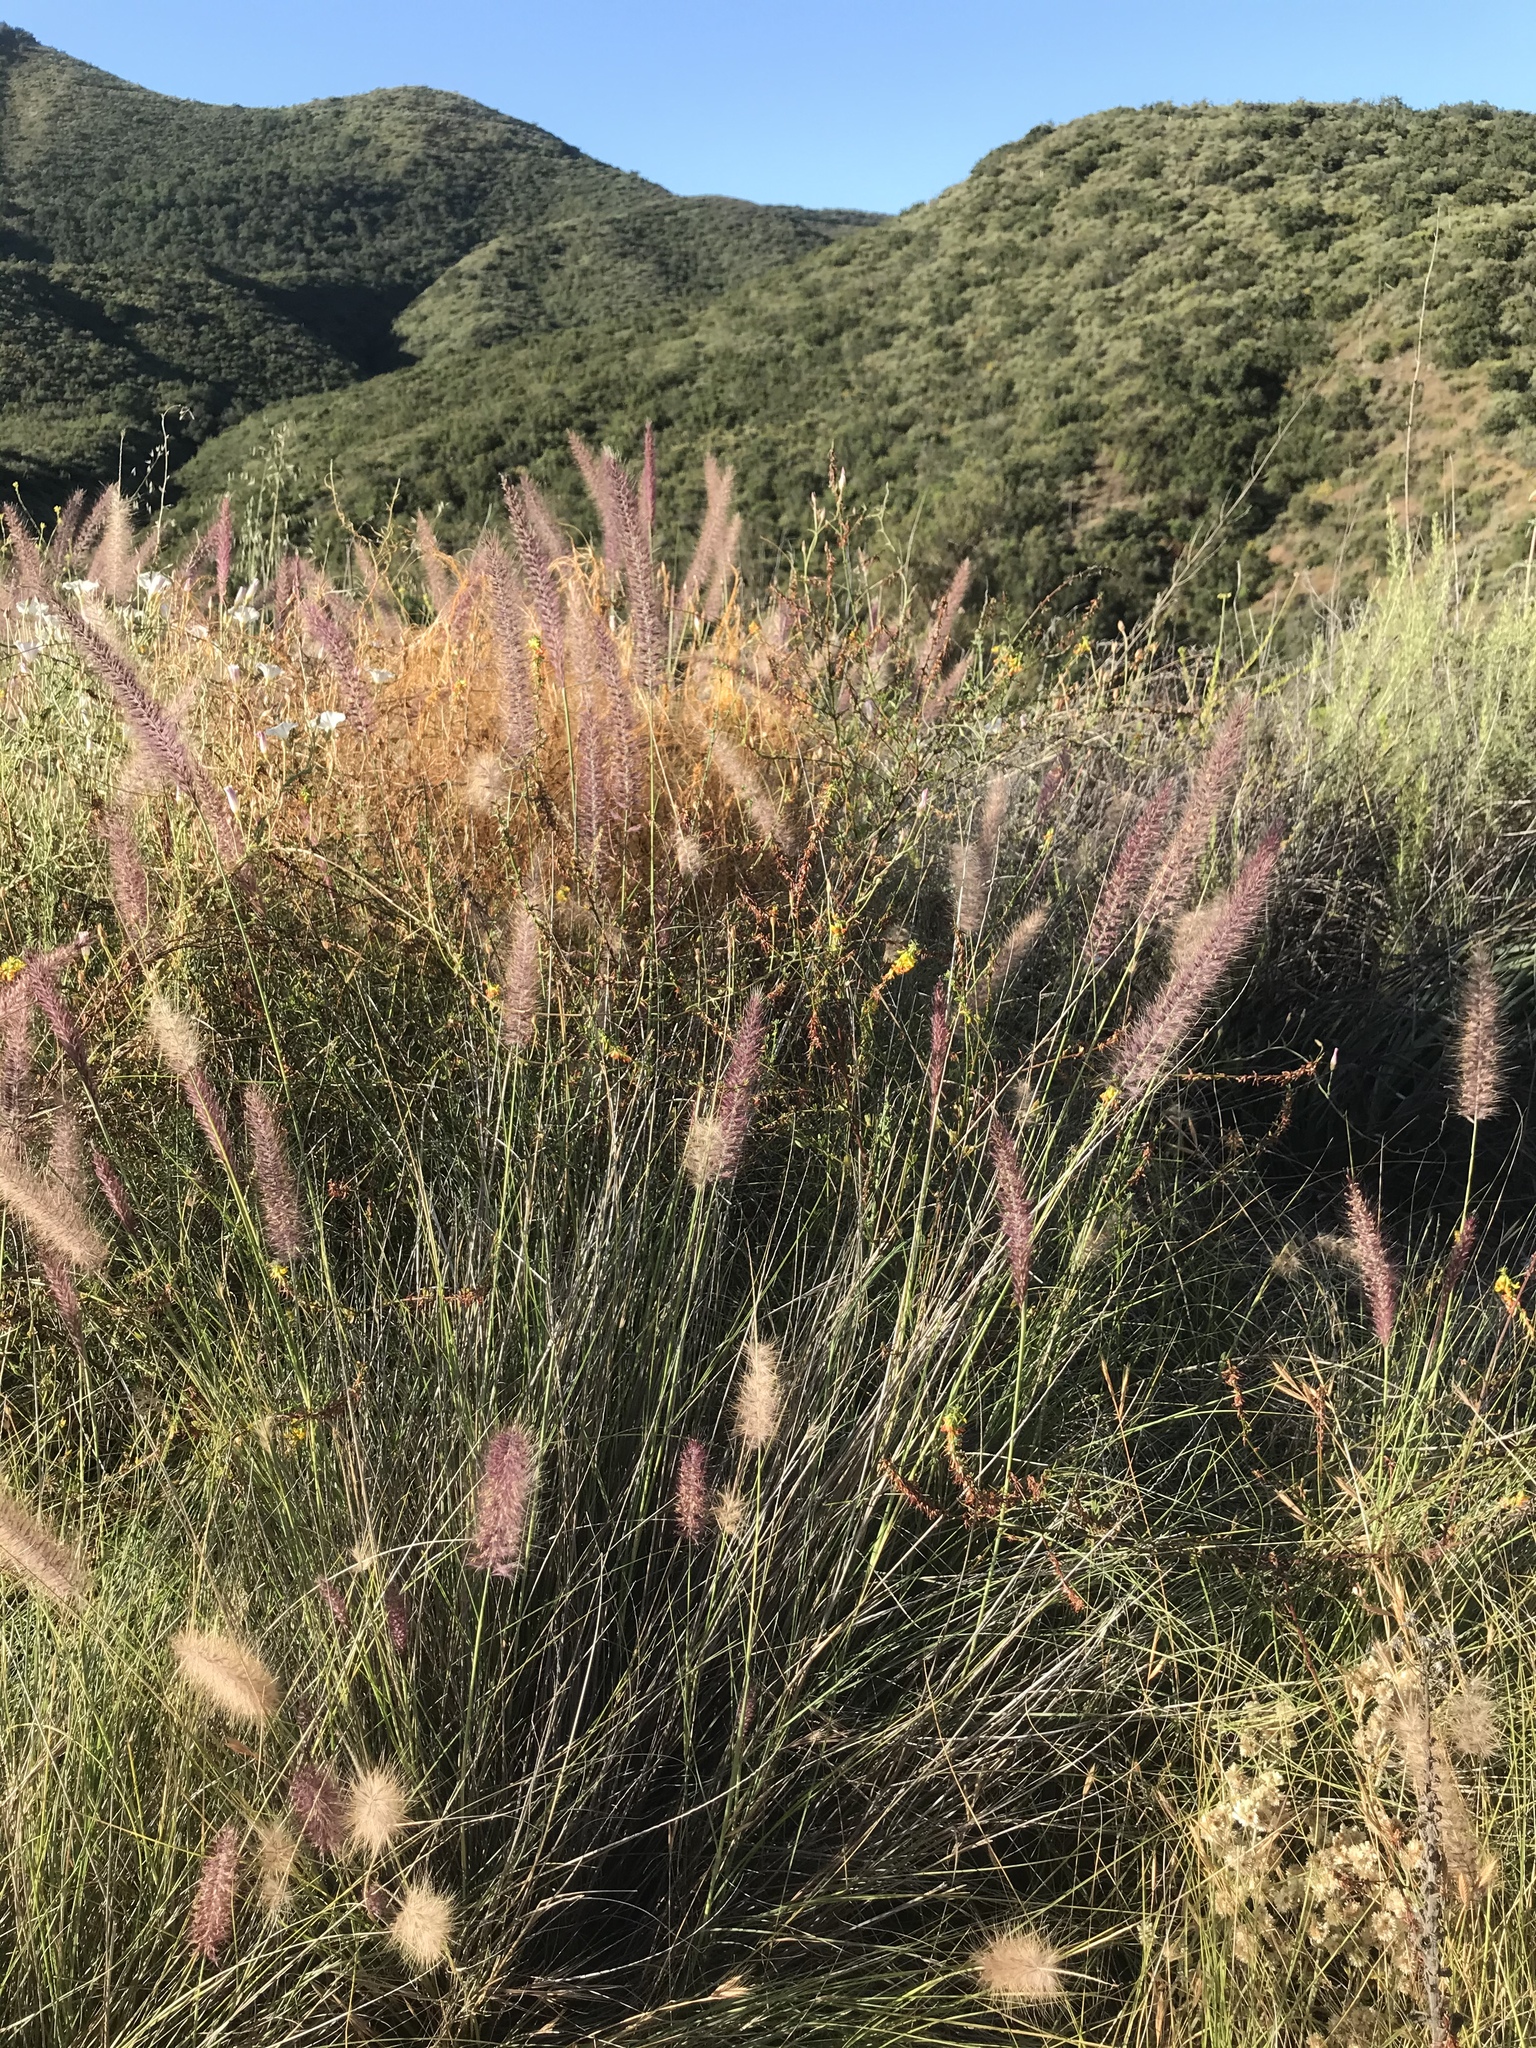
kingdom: Plantae
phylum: Tracheophyta
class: Liliopsida
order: Poales
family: Poaceae
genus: Cenchrus
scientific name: Cenchrus setaceus
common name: Crimson fountaingrass
